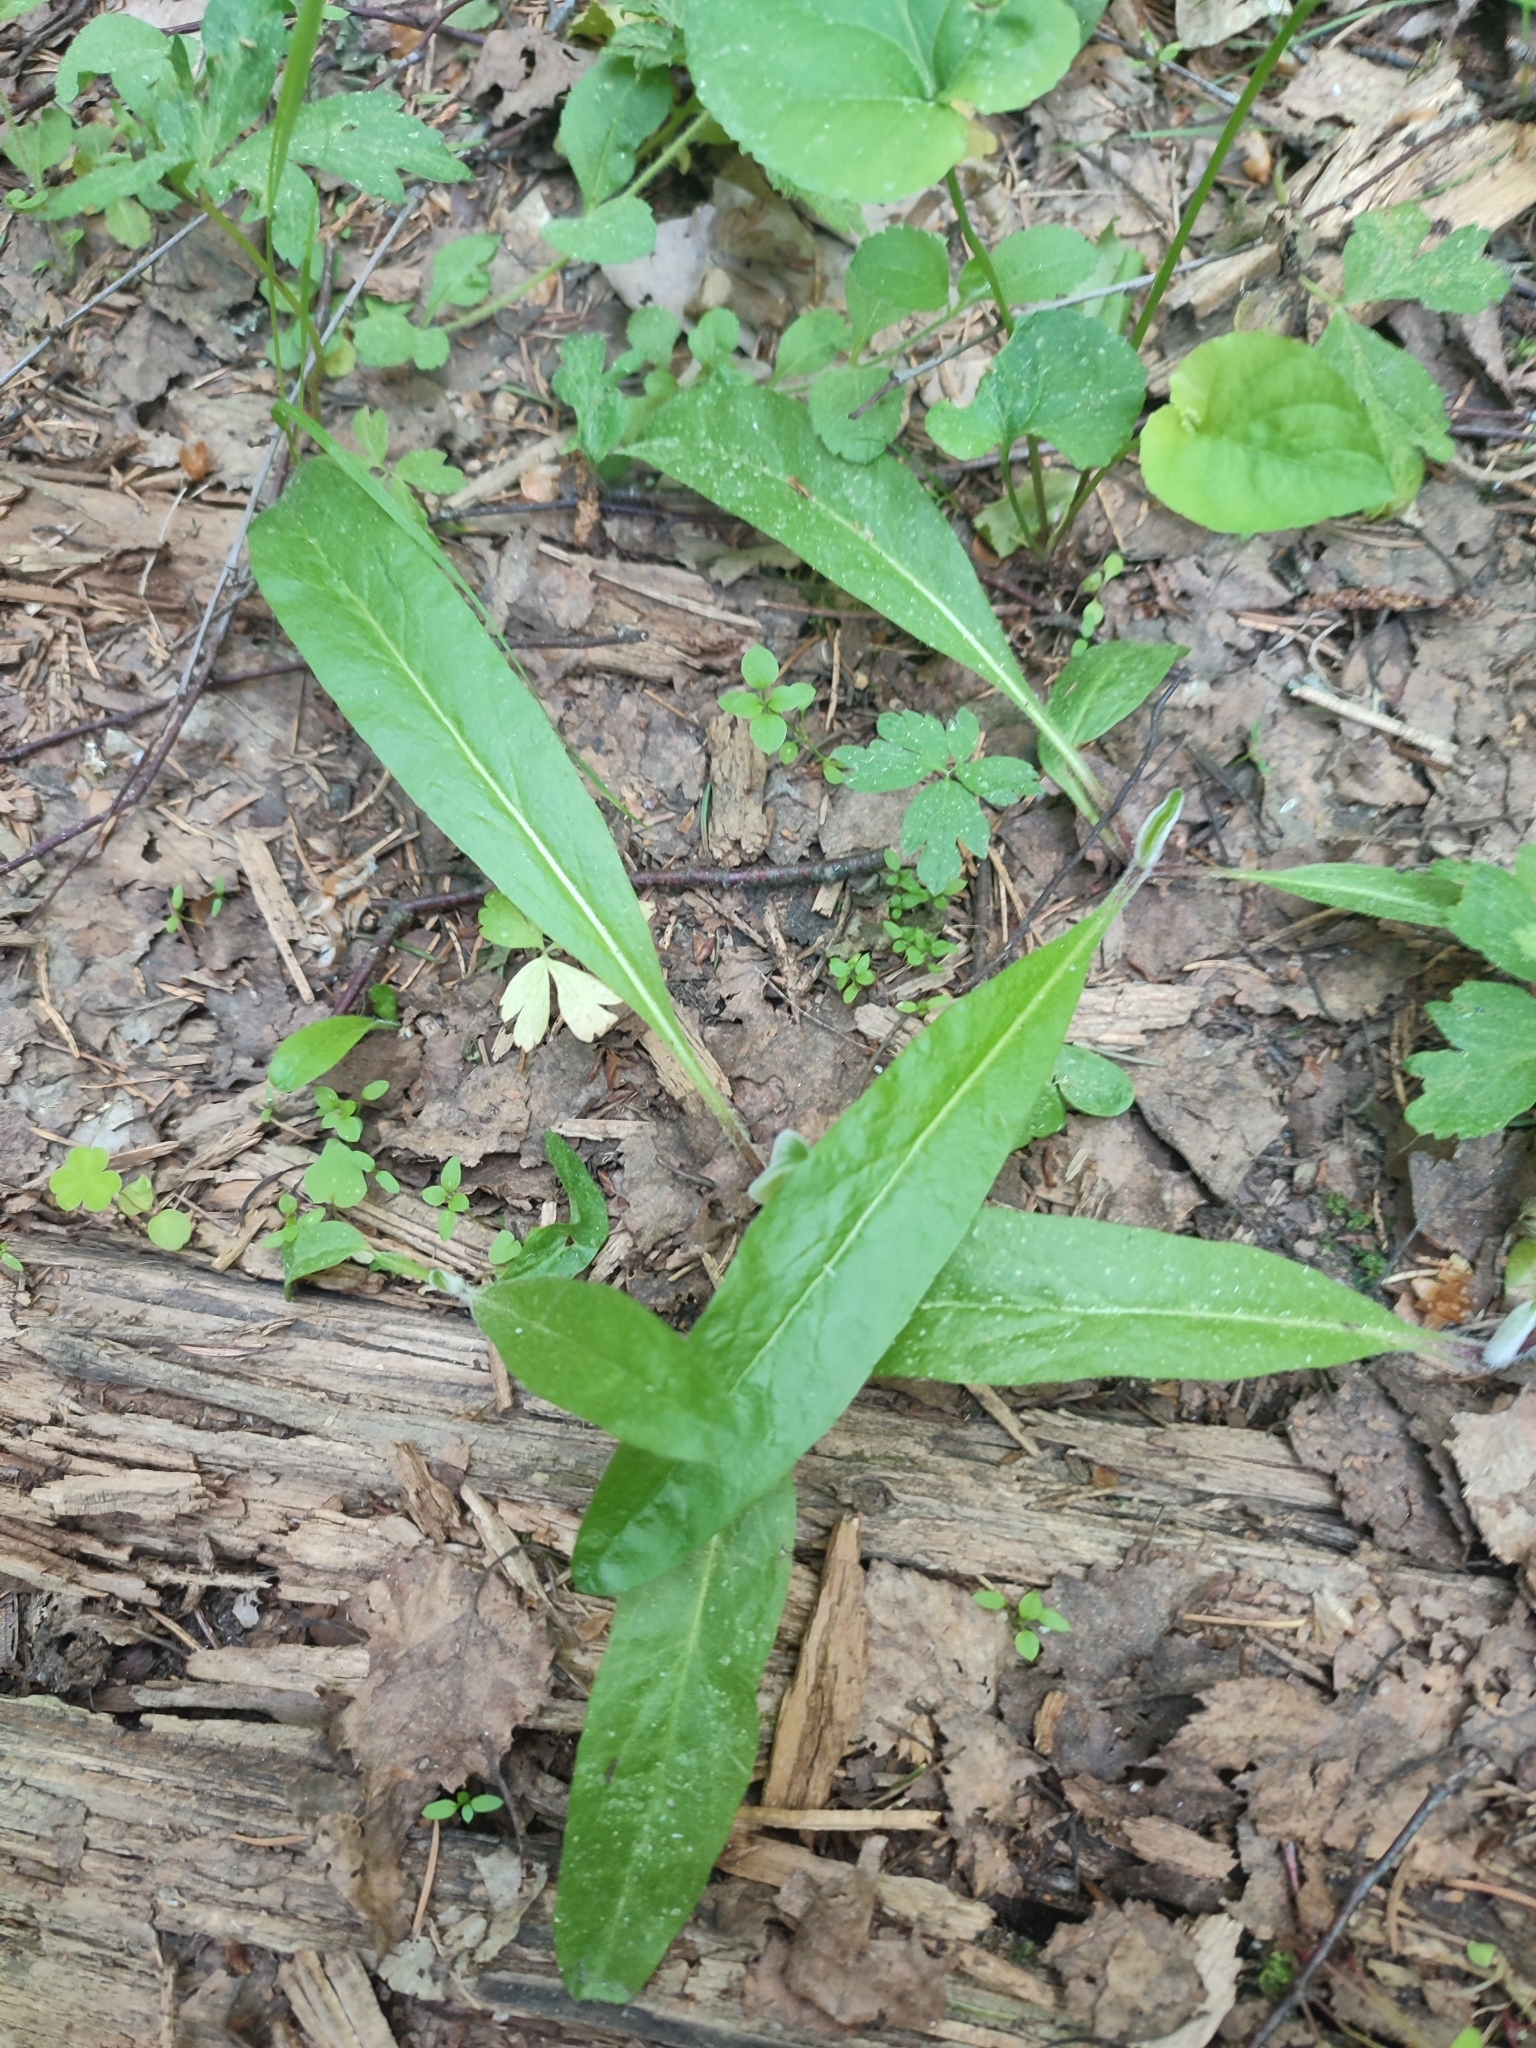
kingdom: Plantae
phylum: Tracheophyta
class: Magnoliopsida
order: Asterales
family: Asteraceae
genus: Pilosella
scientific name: Pilosella onegensis
